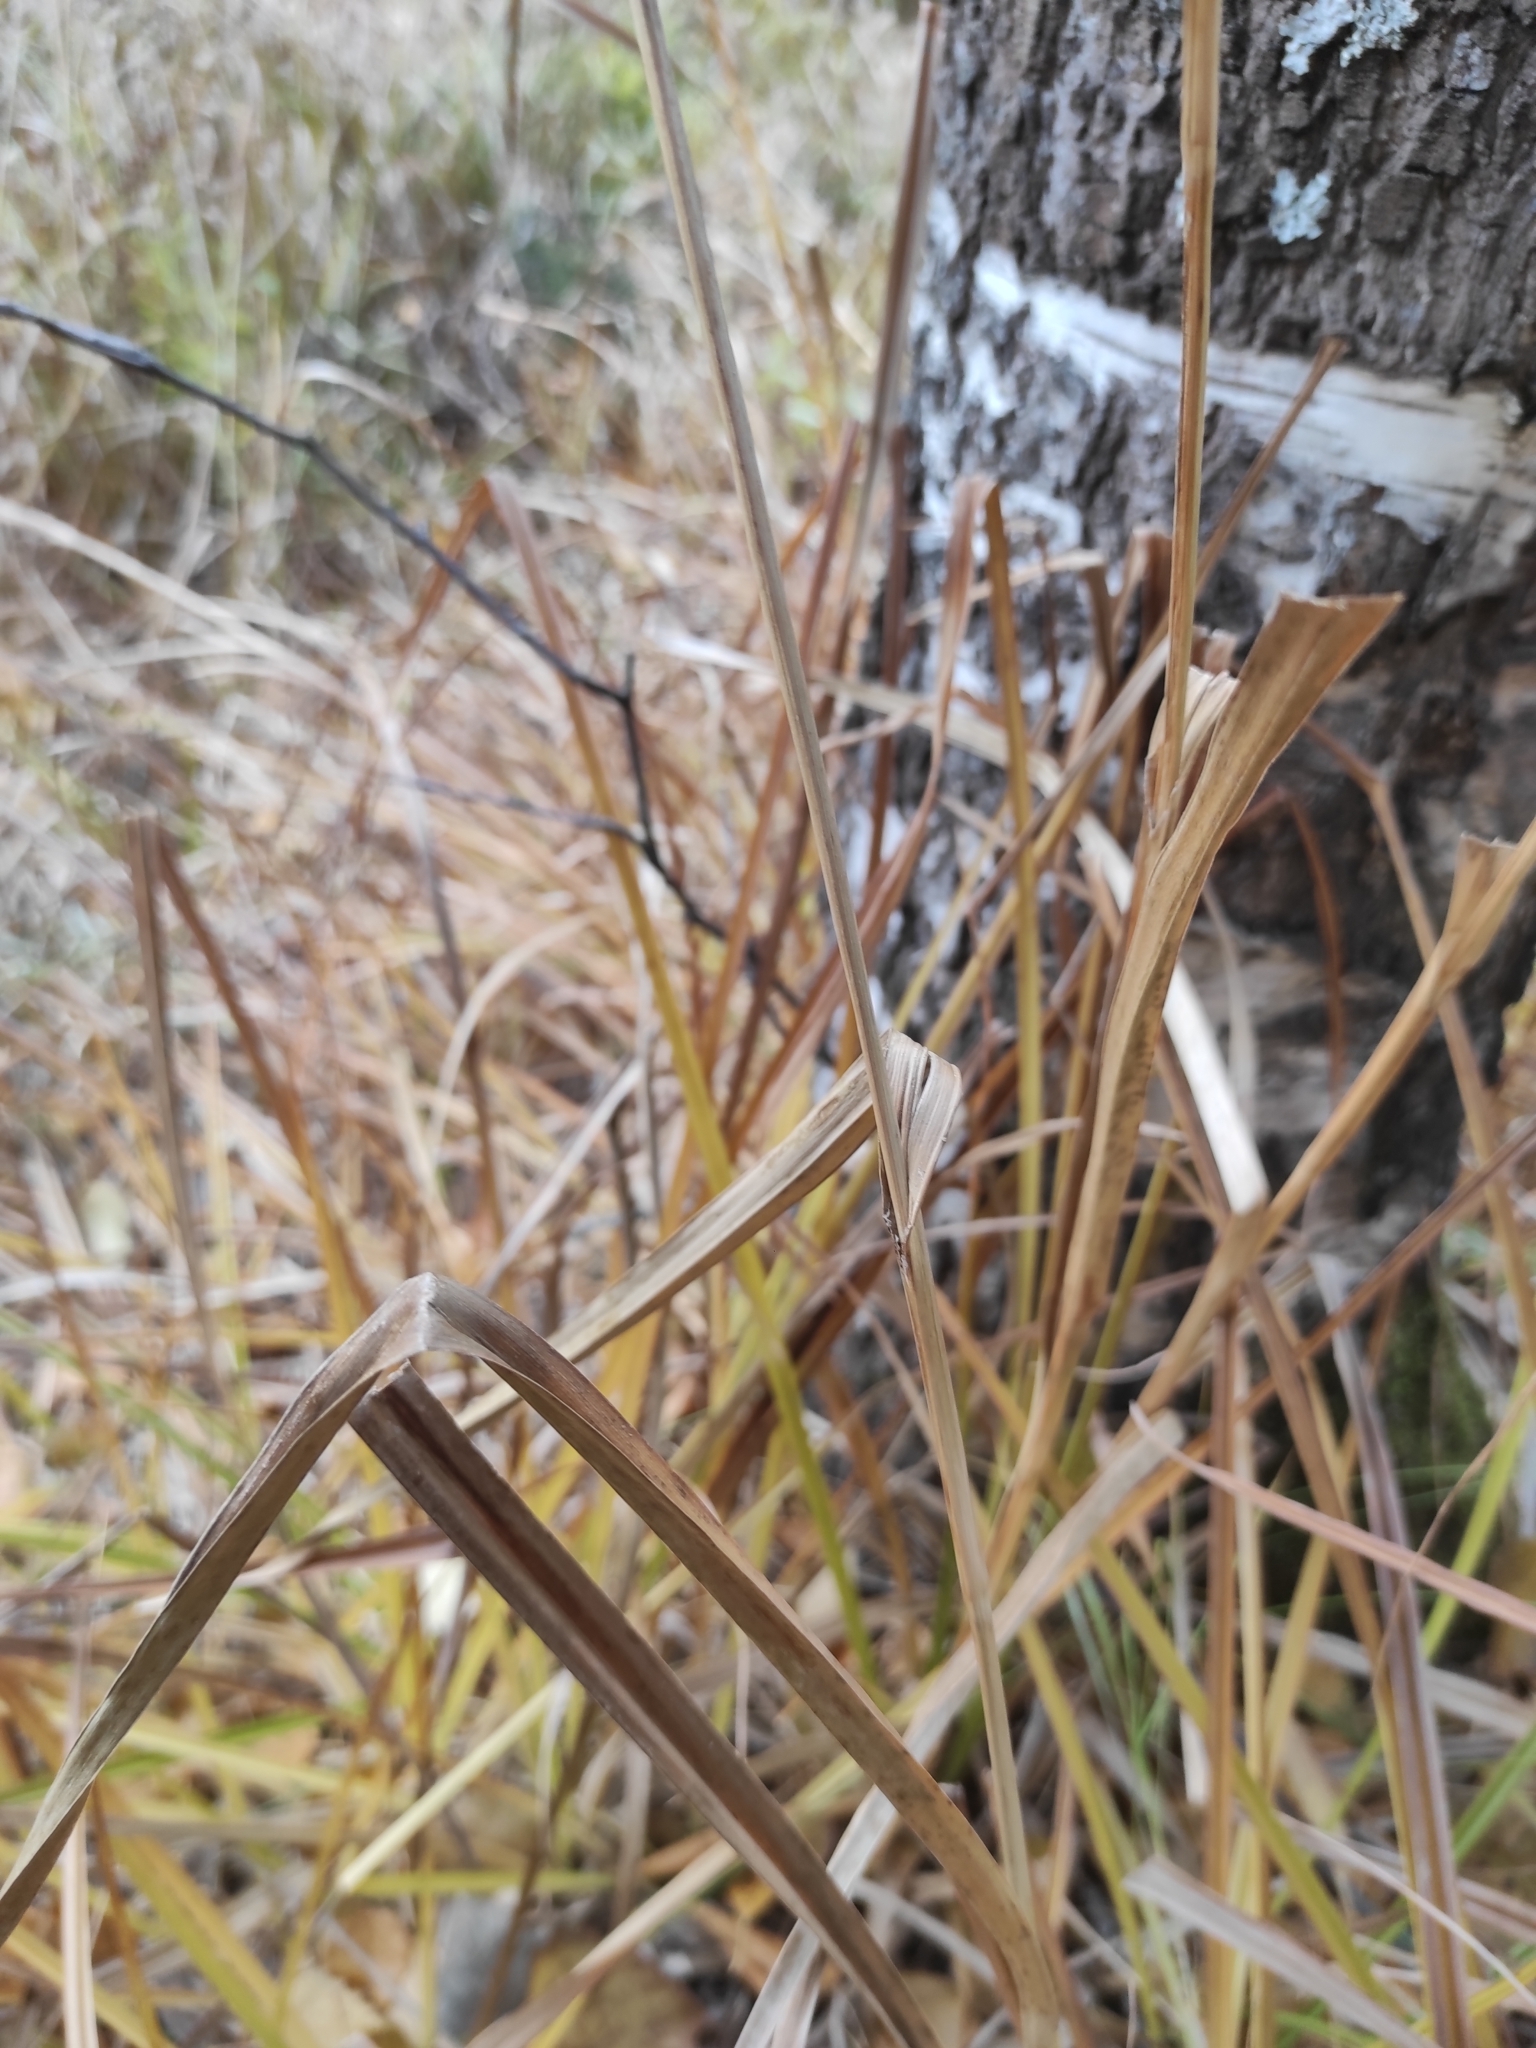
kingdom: Plantae
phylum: Tracheophyta
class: Liliopsida
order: Poales
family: Cyperaceae
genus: Scirpus
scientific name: Scirpus sylvaticus
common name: Wood club-rush
